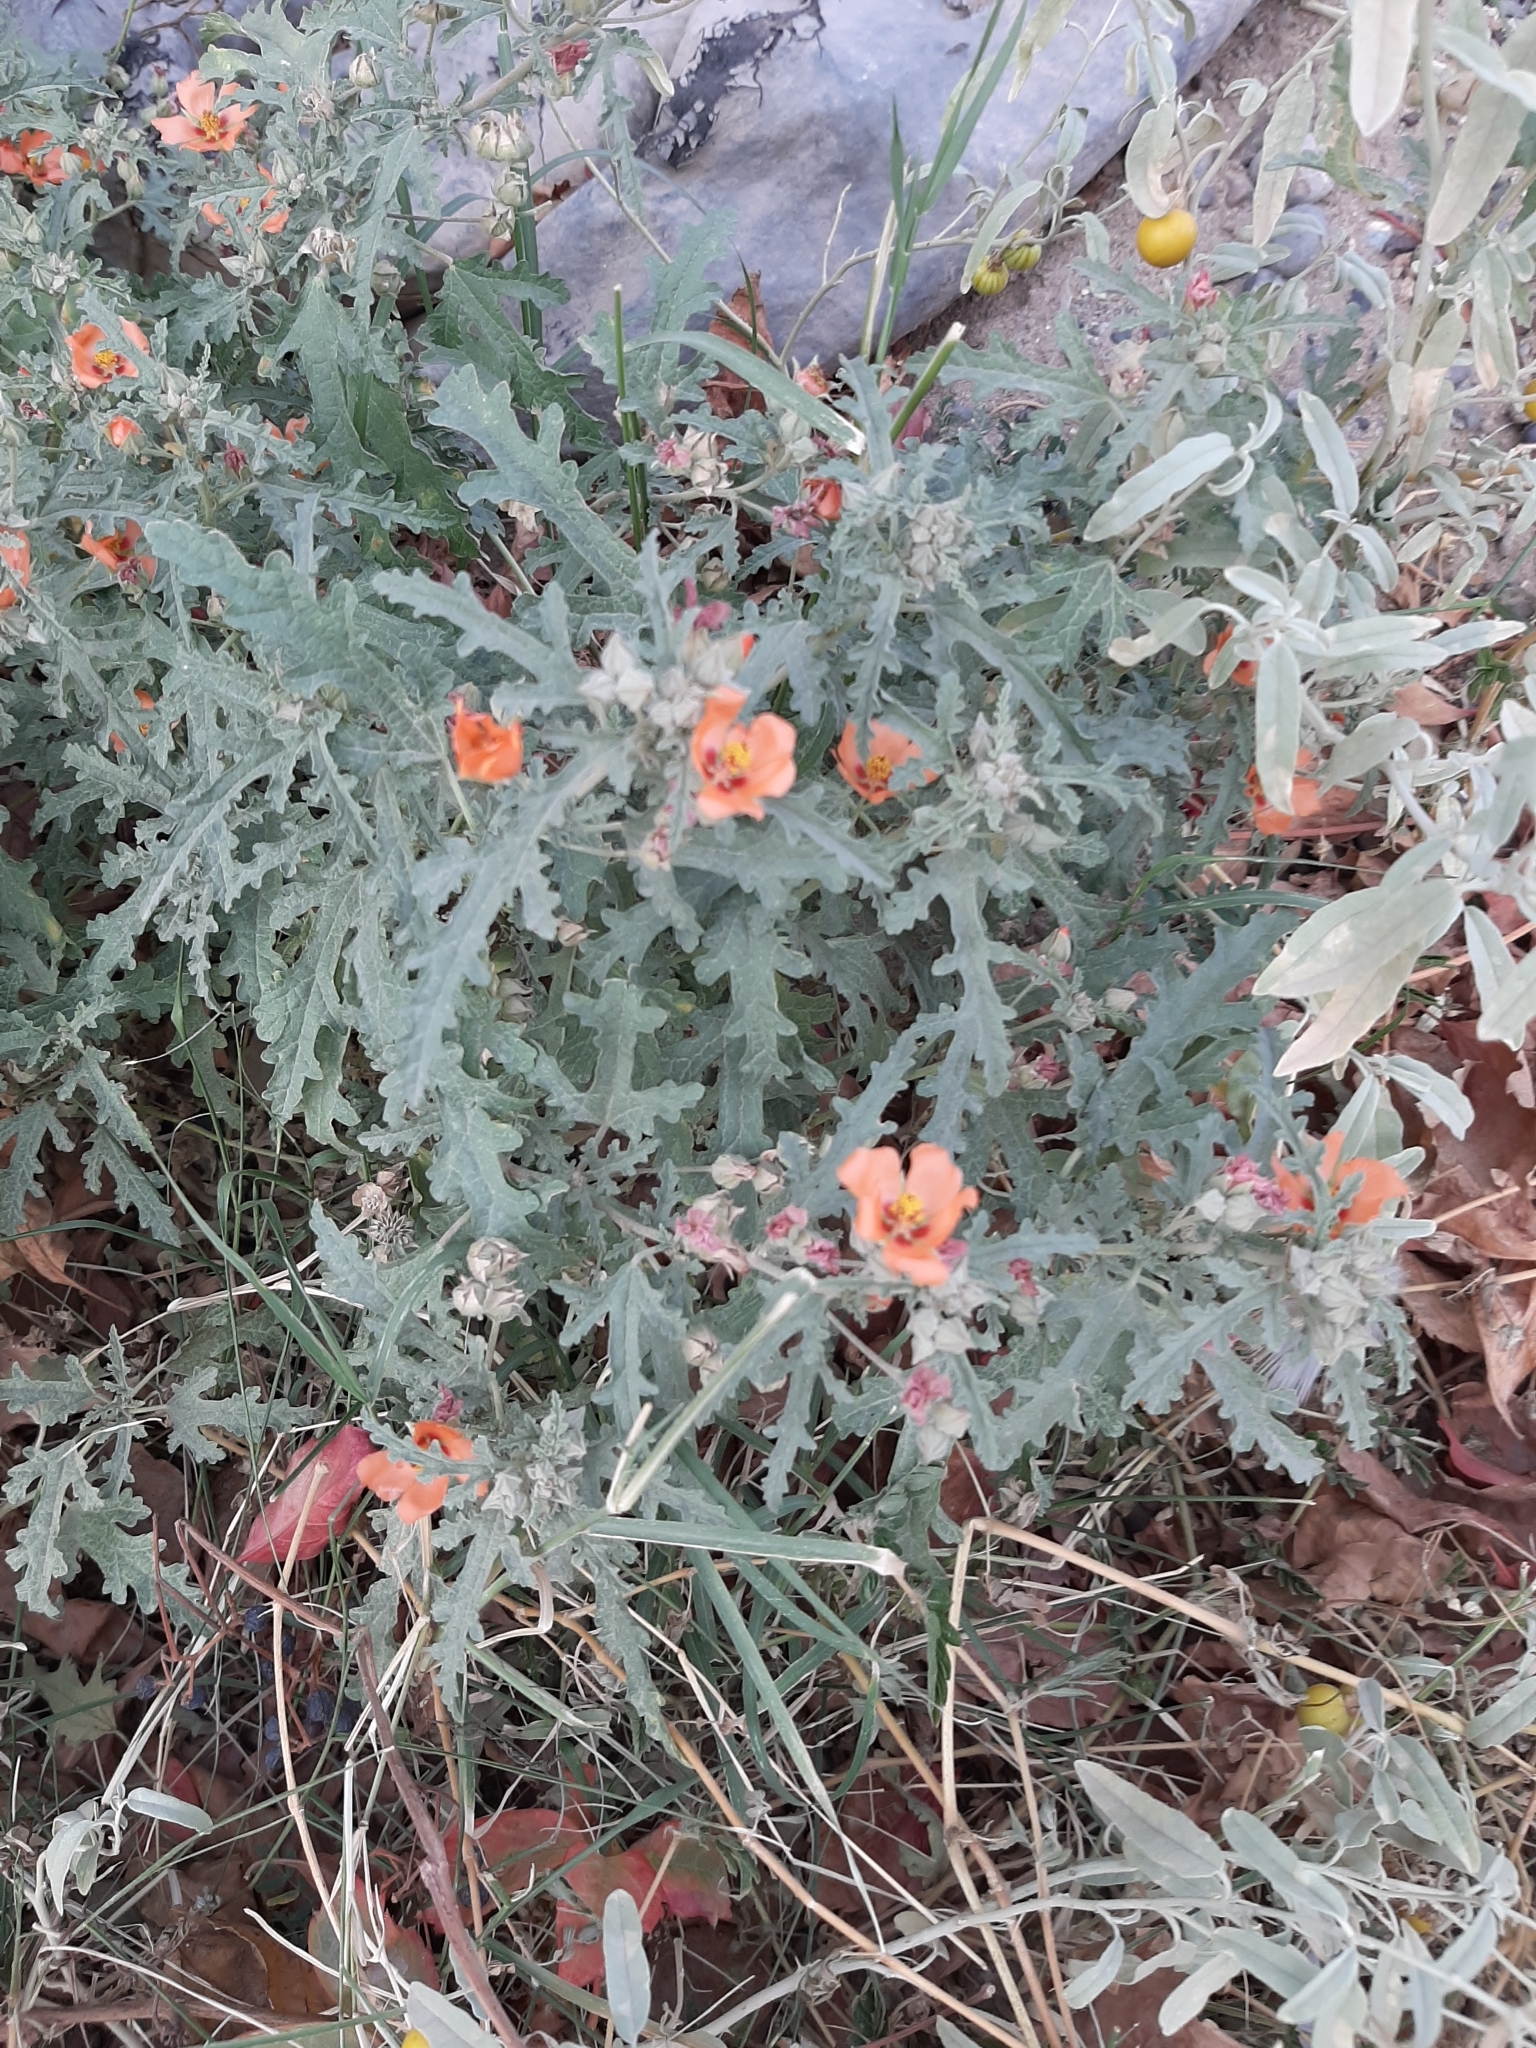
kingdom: Plantae
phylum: Tracheophyta
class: Magnoliopsida
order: Malvales
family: Malvaceae
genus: Sphaeralcea
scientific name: Sphaeralcea australis
